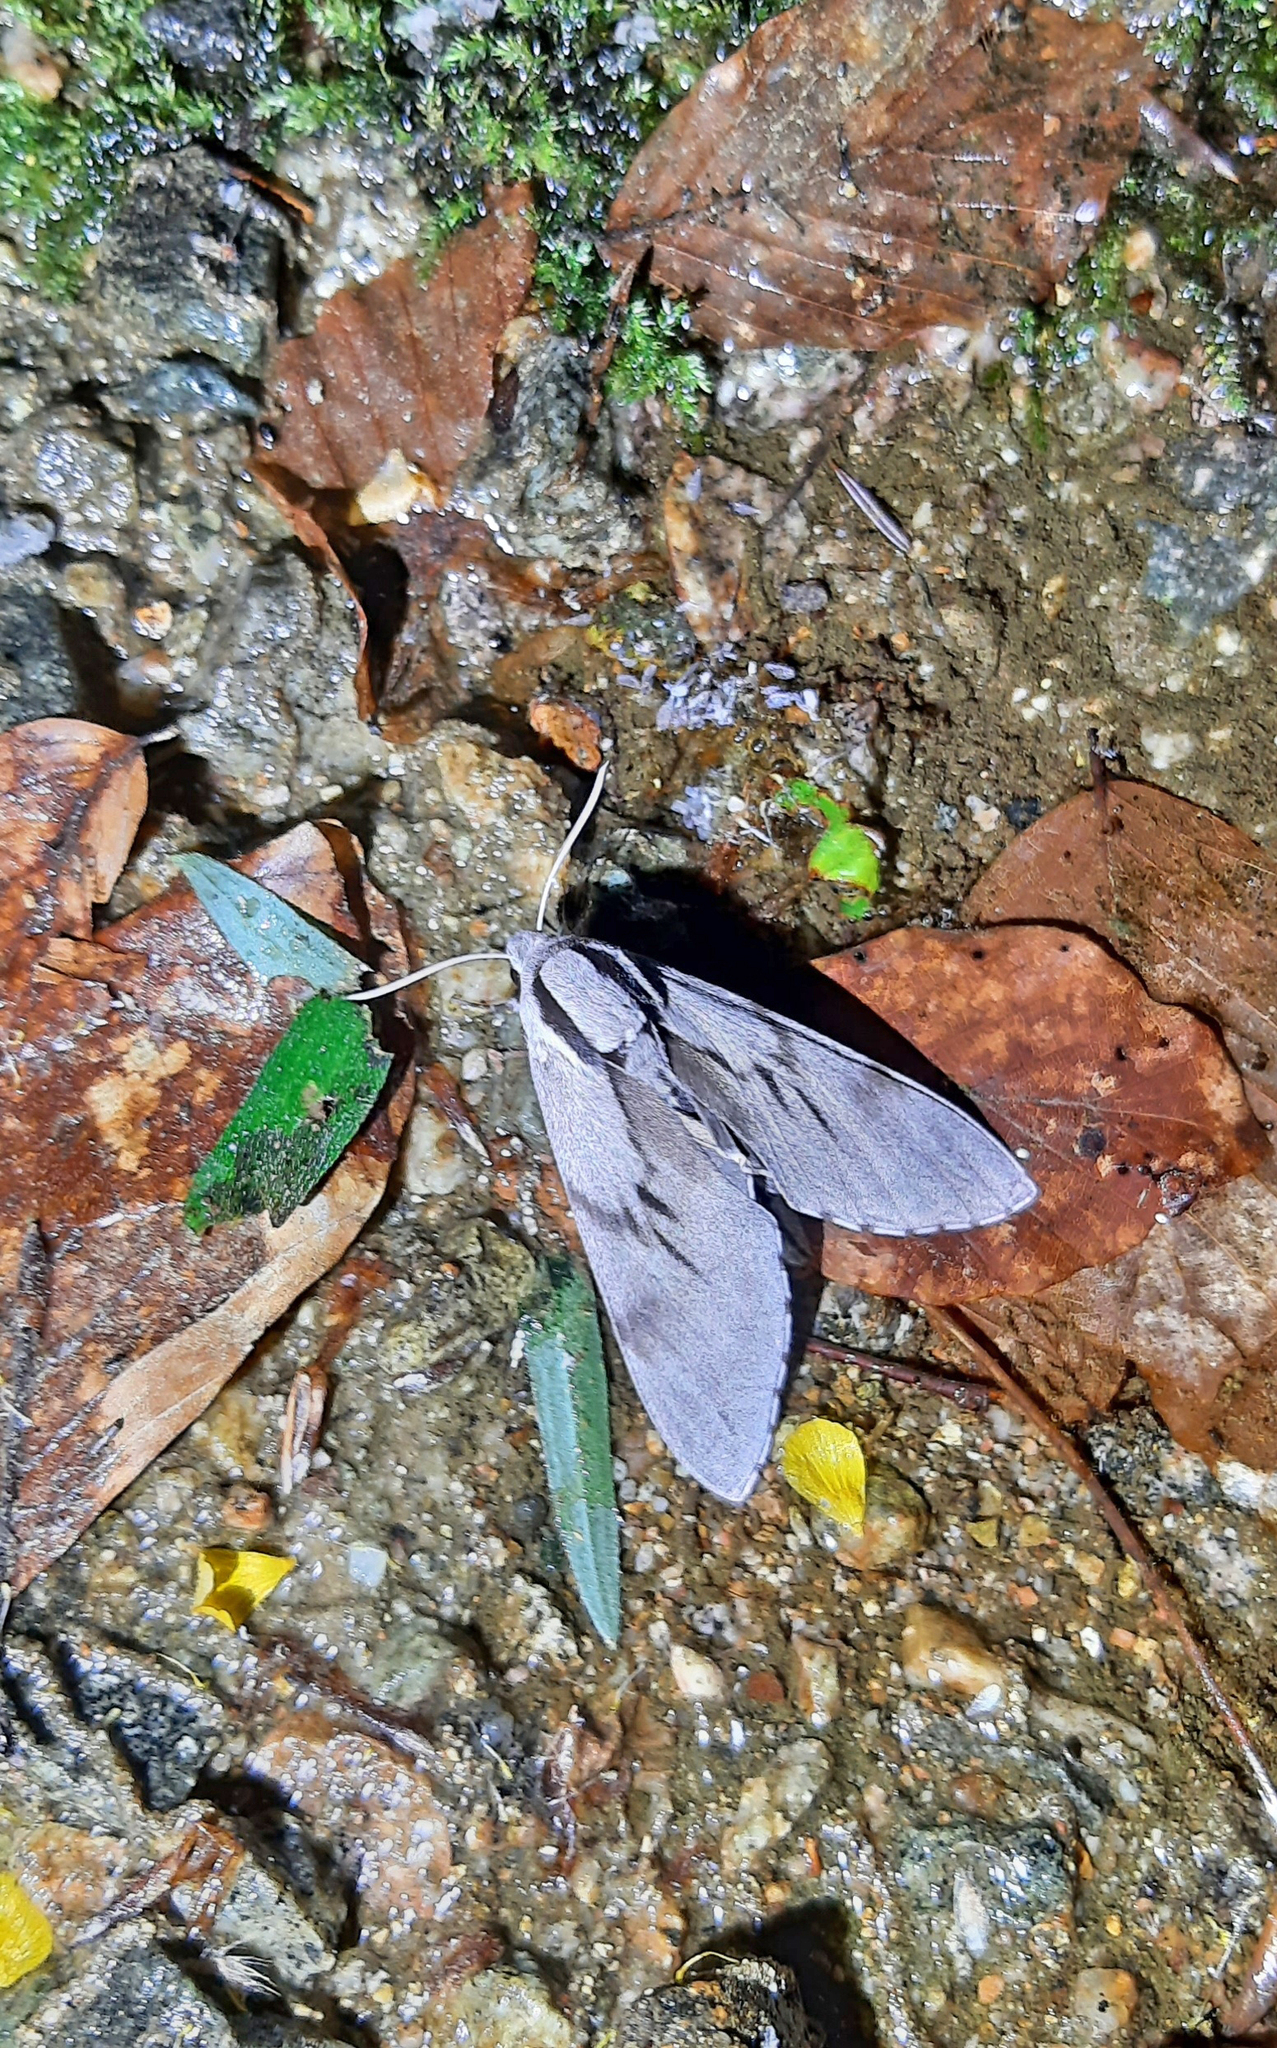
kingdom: Animalia
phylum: Arthropoda
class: Insecta
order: Lepidoptera
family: Sphingidae
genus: Sphinx
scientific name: Sphinx pinastri
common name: Pine hawk-moth
